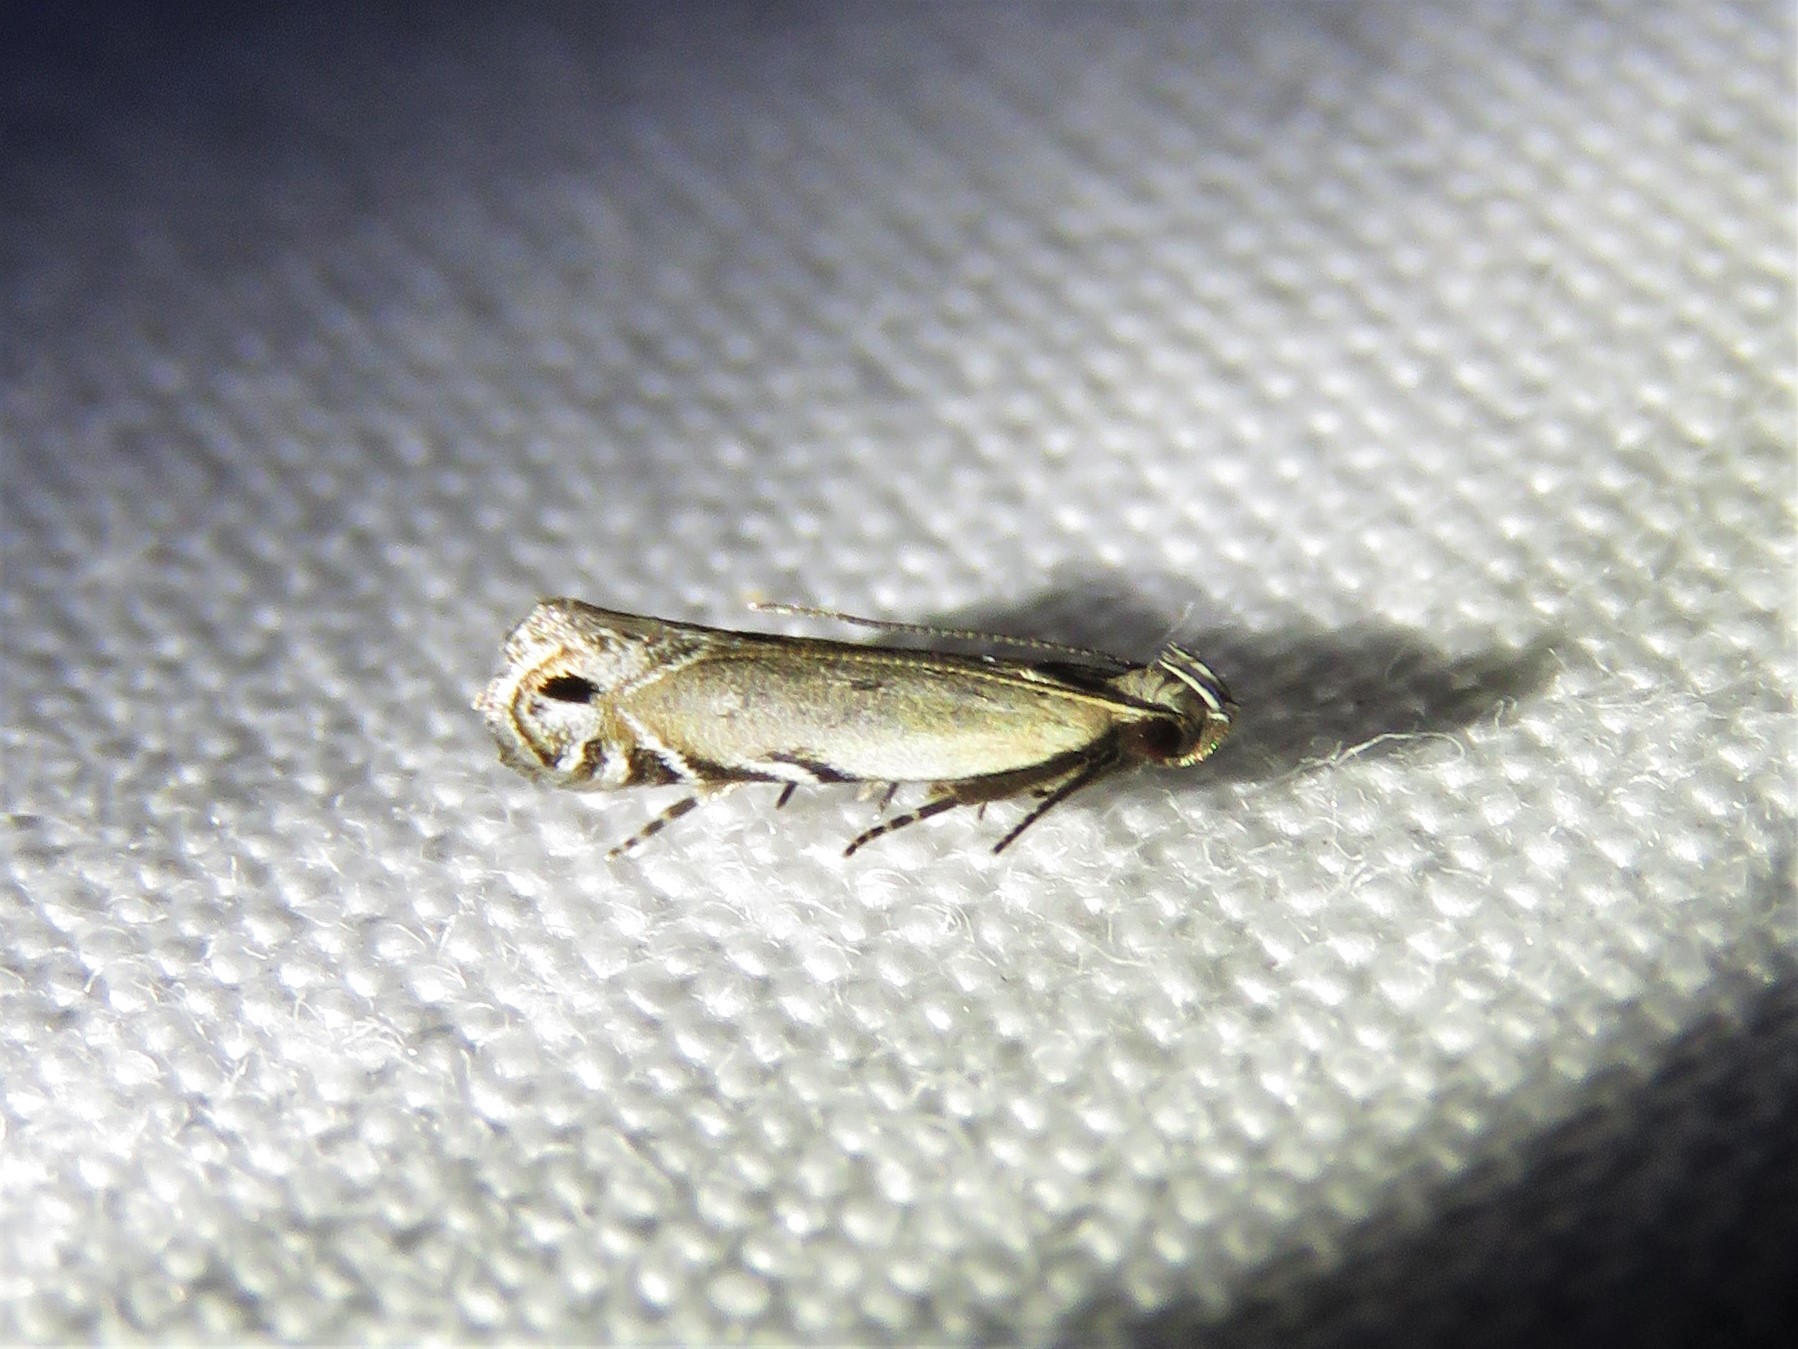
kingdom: Animalia
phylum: Arthropoda
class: Insecta
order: Lepidoptera
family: Gelechiidae
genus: Battaristis
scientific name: Battaristis concinnusella
